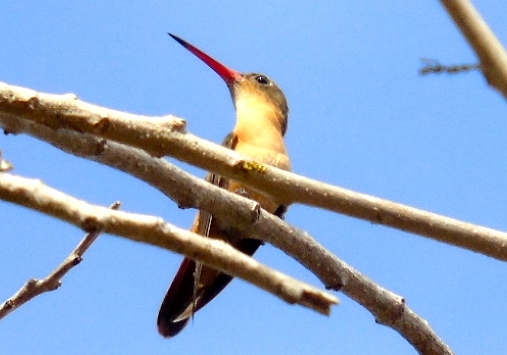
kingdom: Animalia
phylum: Chordata
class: Aves
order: Apodiformes
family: Trochilidae
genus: Amazilia
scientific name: Amazilia rutila
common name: Cinnamon hummingbird
